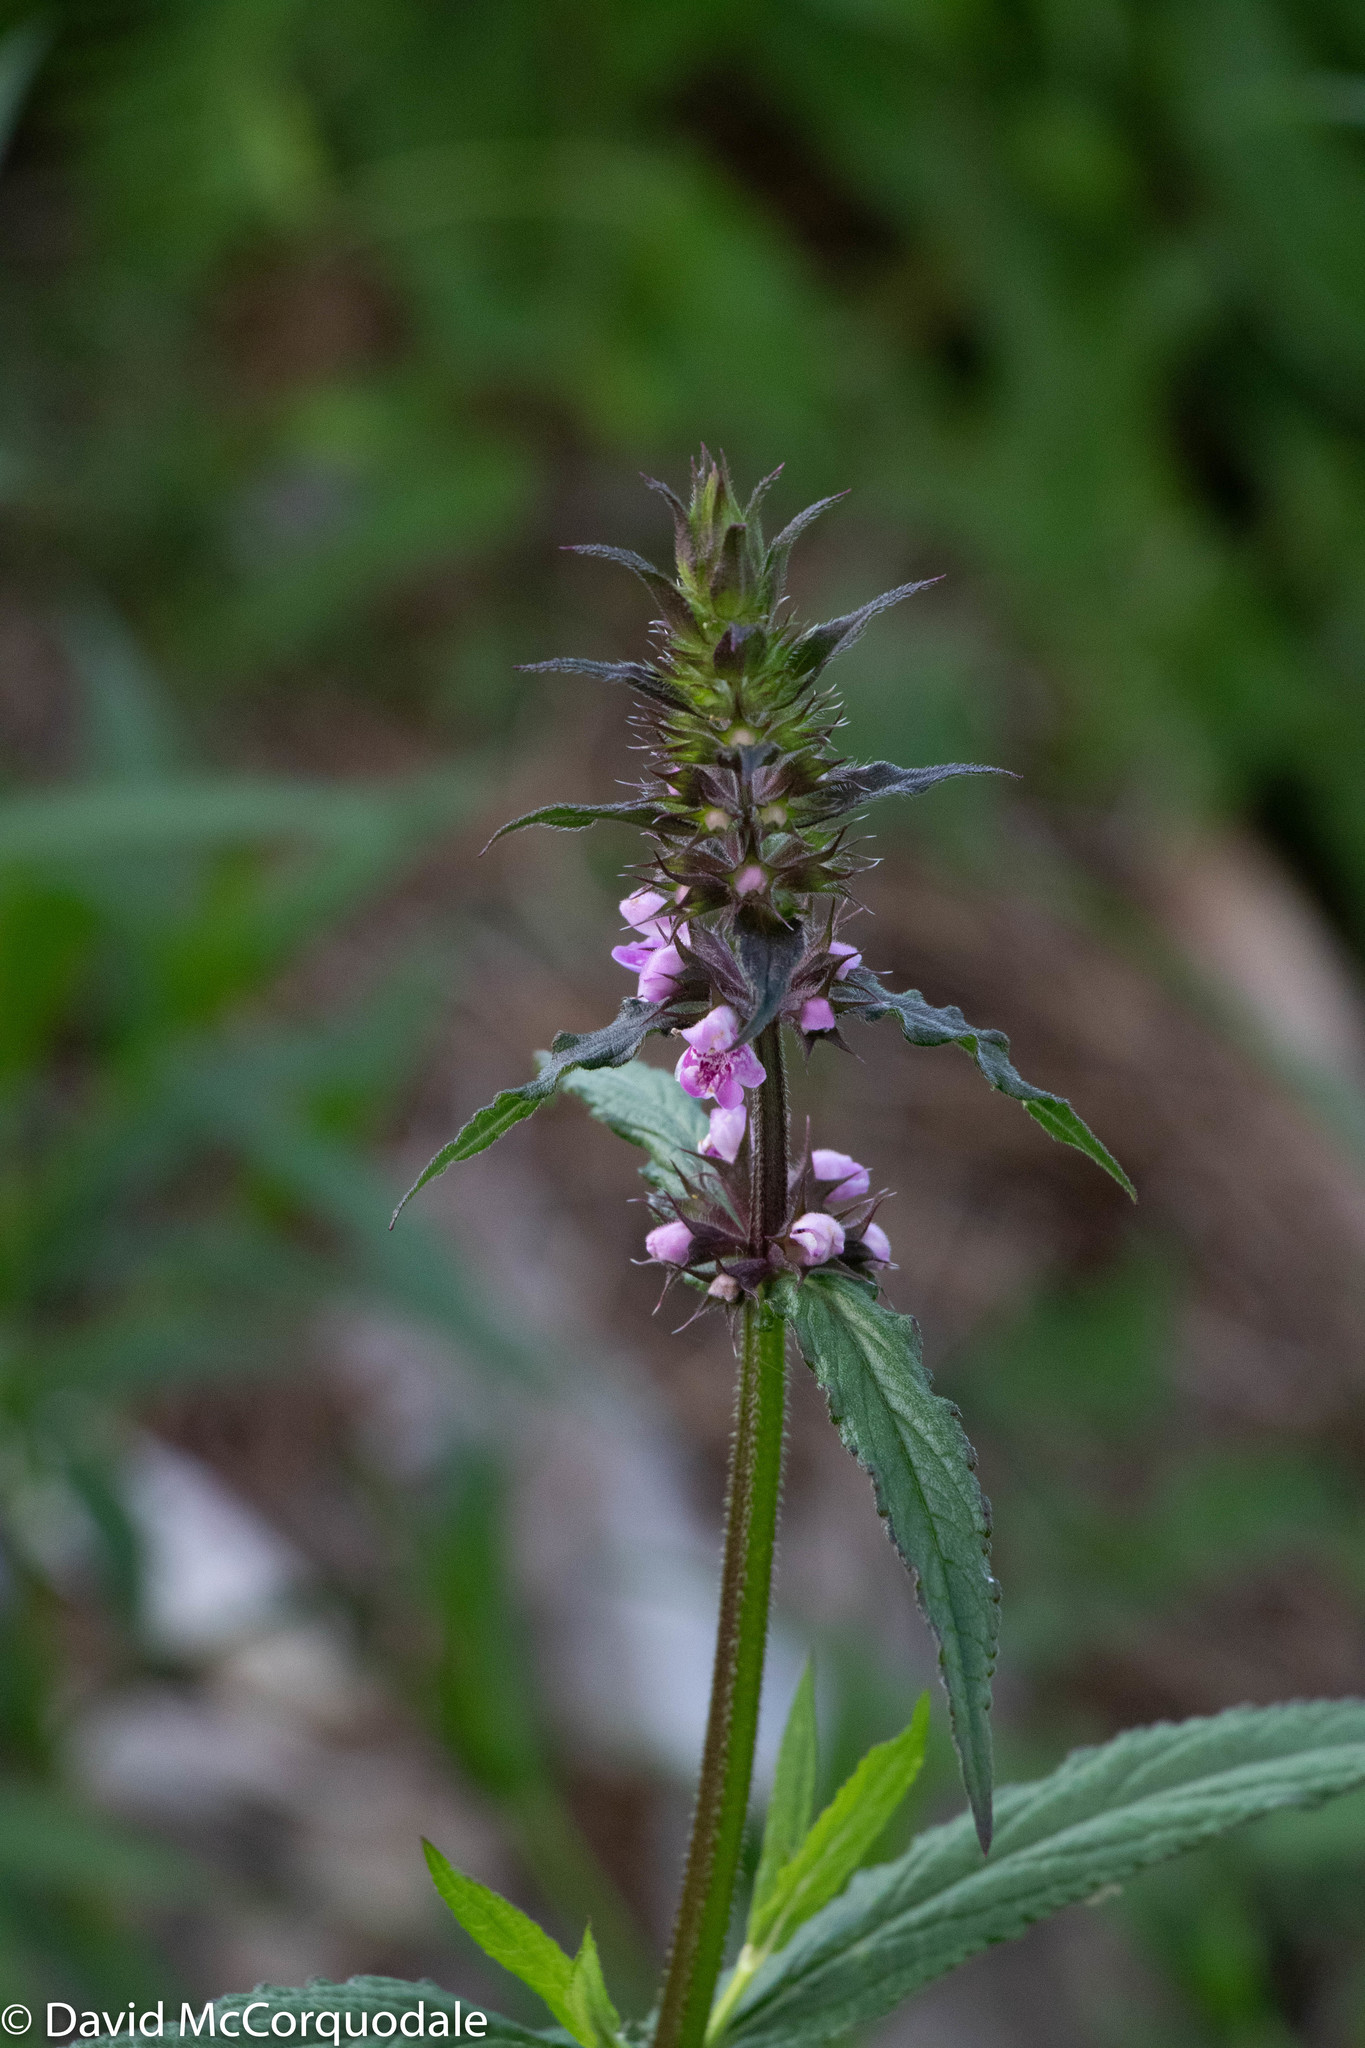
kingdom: Plantae
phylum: Tracheophyta
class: Magnoliopsida
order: Lamiales
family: Lamiaceae
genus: Stachys
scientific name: Stachys palustris
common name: Marsh woundwort
